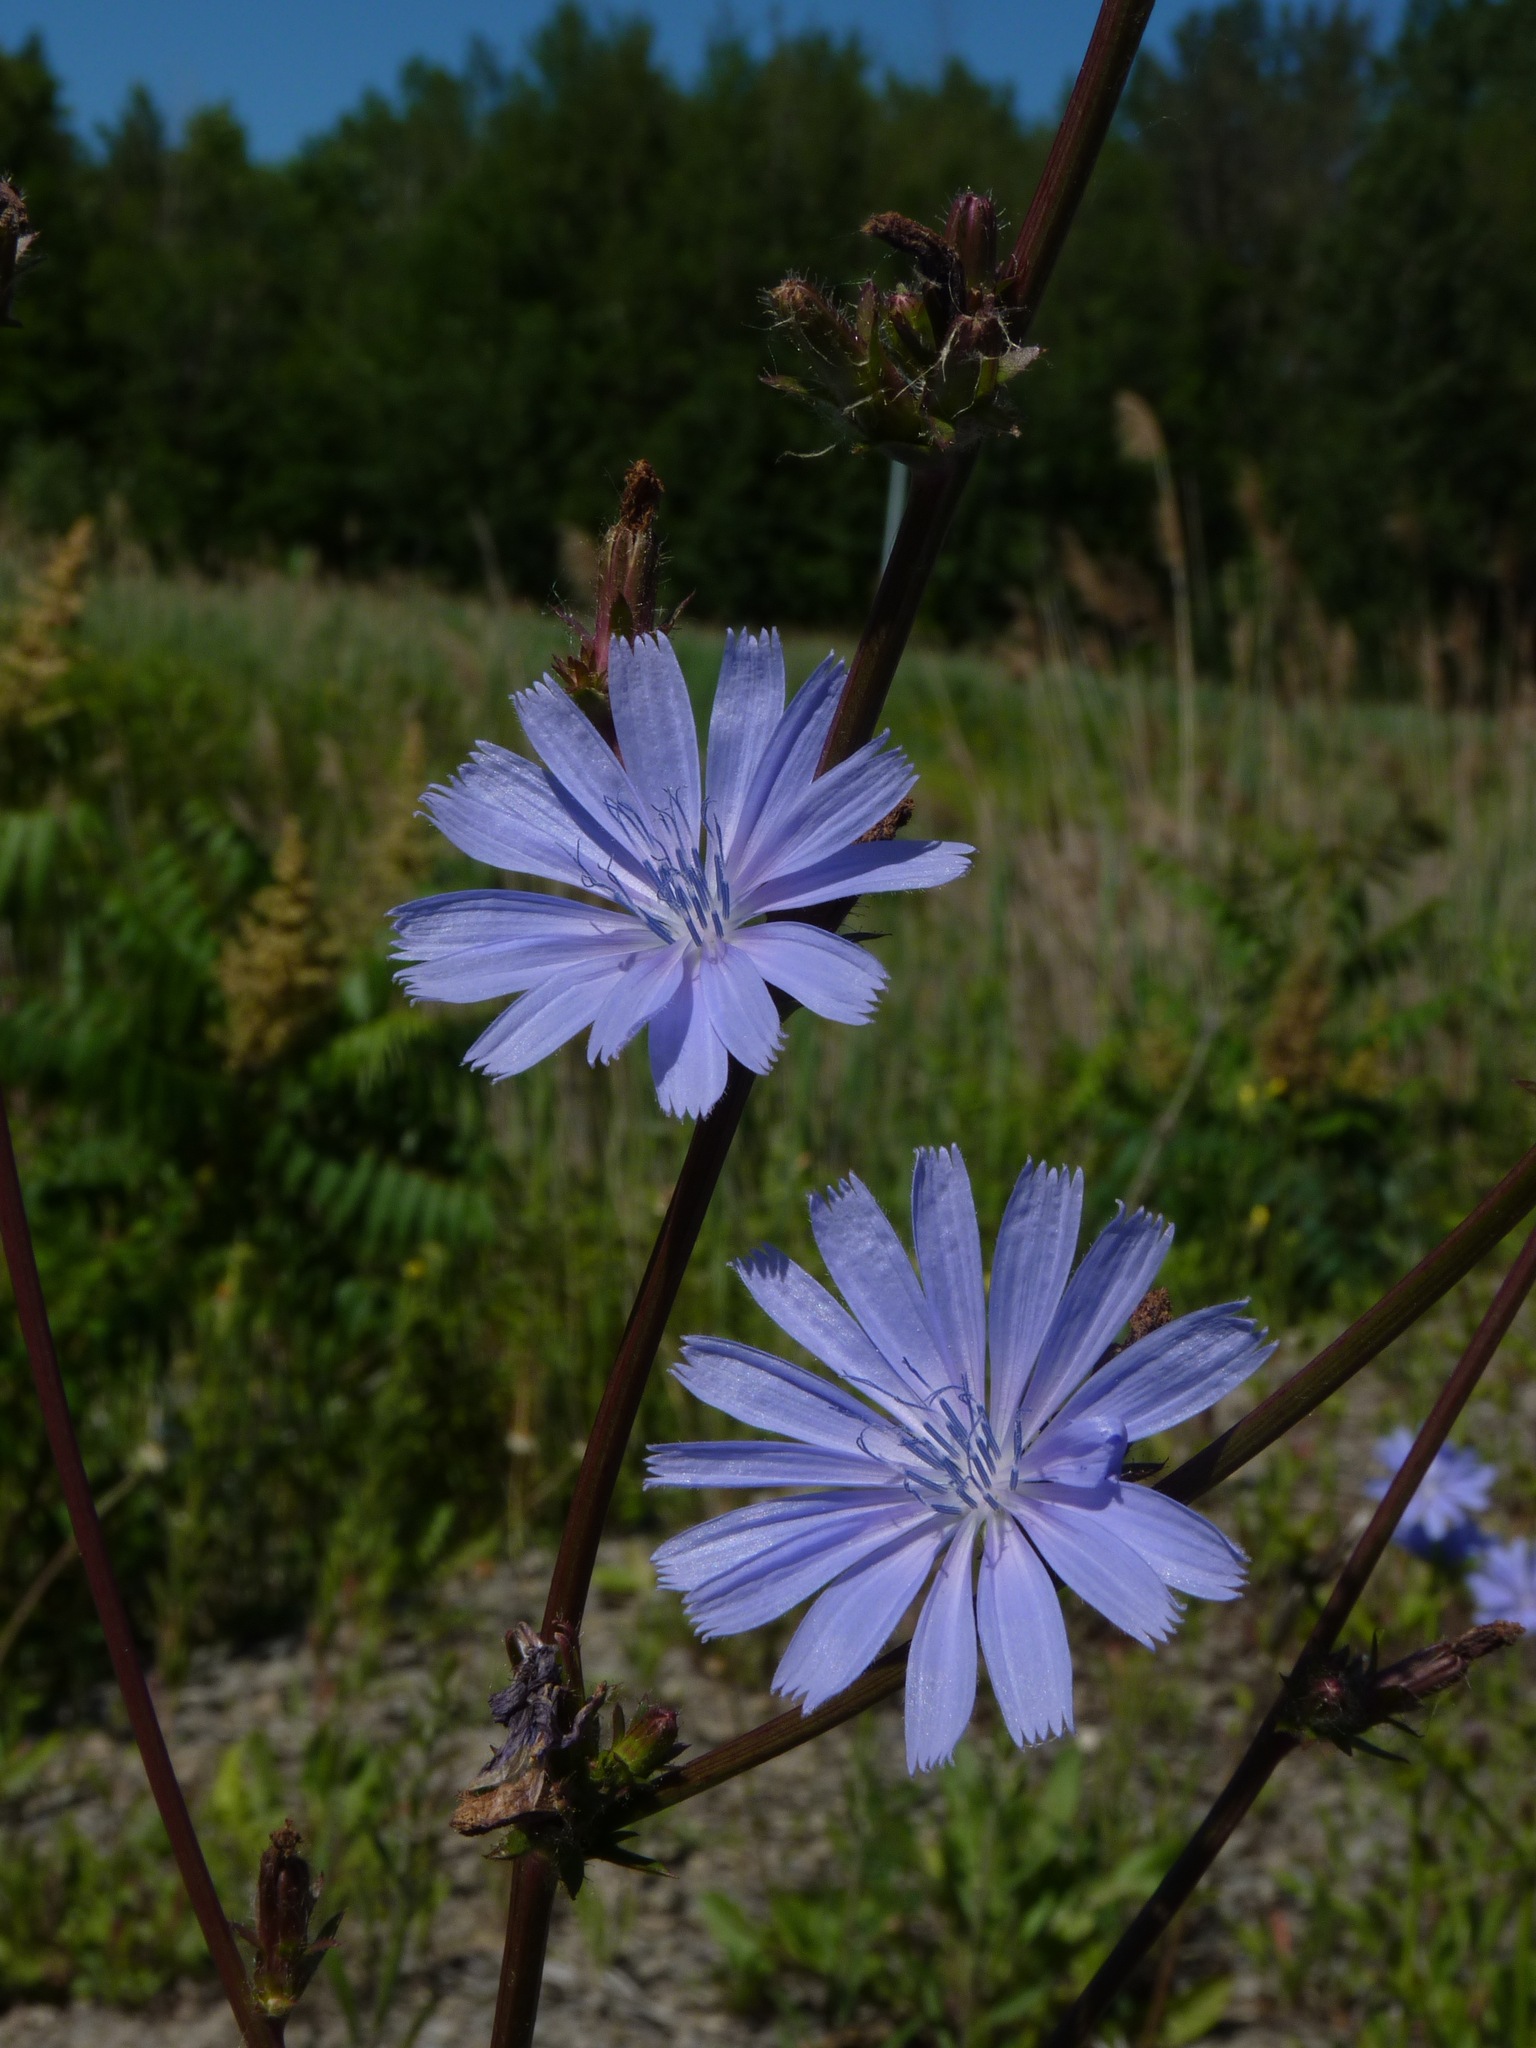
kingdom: Plantae
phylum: Tracheophyta
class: Magnoliopsida
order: Asterales
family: Asteraceae
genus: Cichorium
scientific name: Cichorium intybus
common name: Chicory
